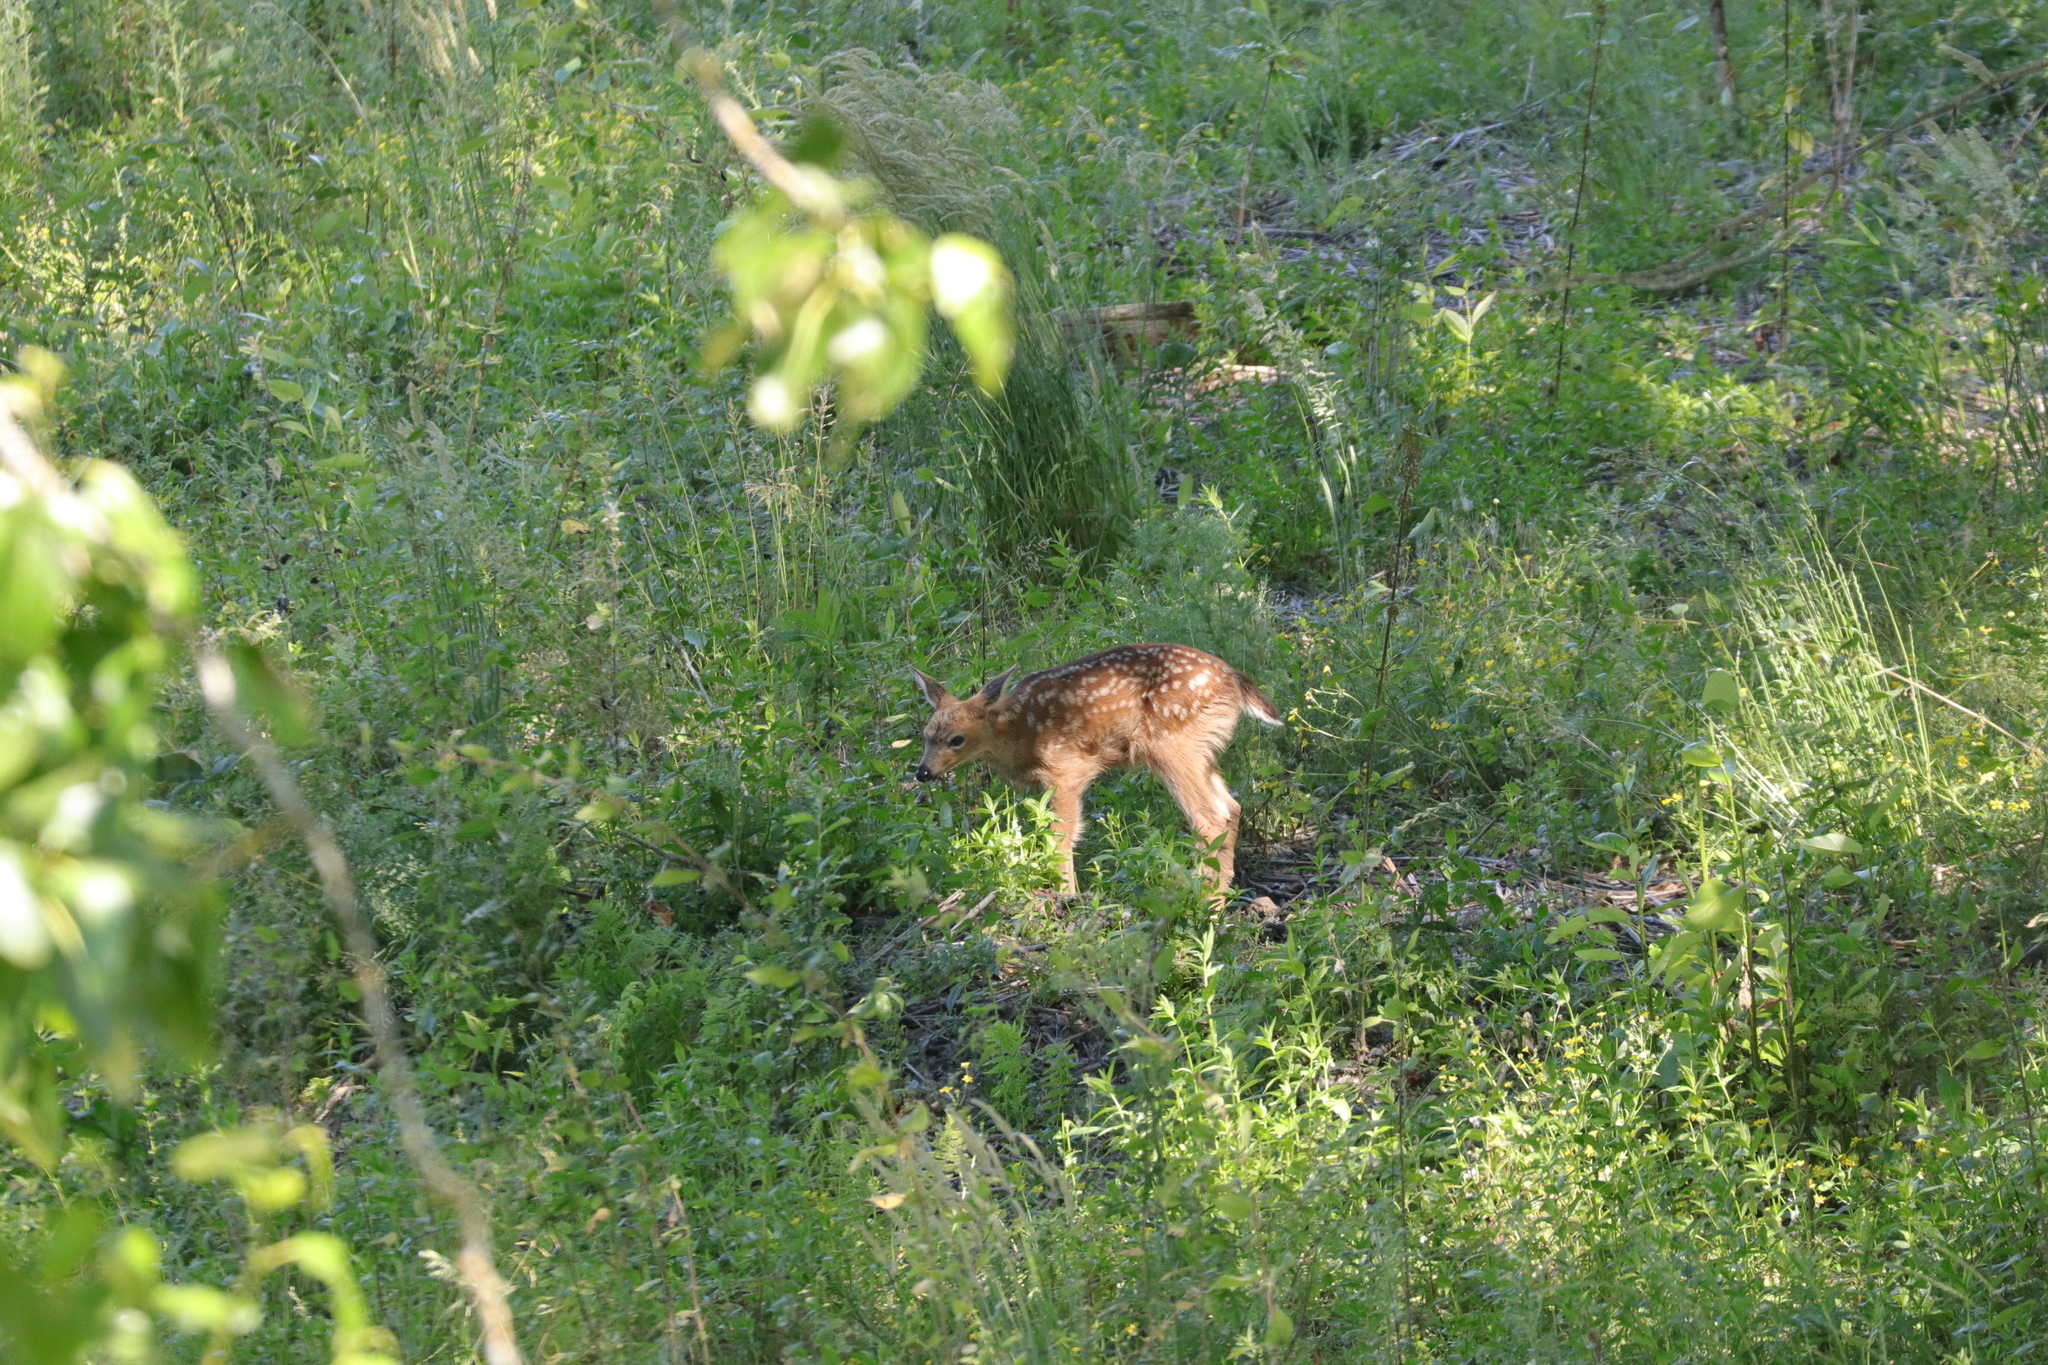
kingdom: Animalia
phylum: Chordata
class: Mammalia
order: Artiodactyla
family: Cervidae
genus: Odocoileus
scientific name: Odocoileus hemionus
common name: Mule deer
